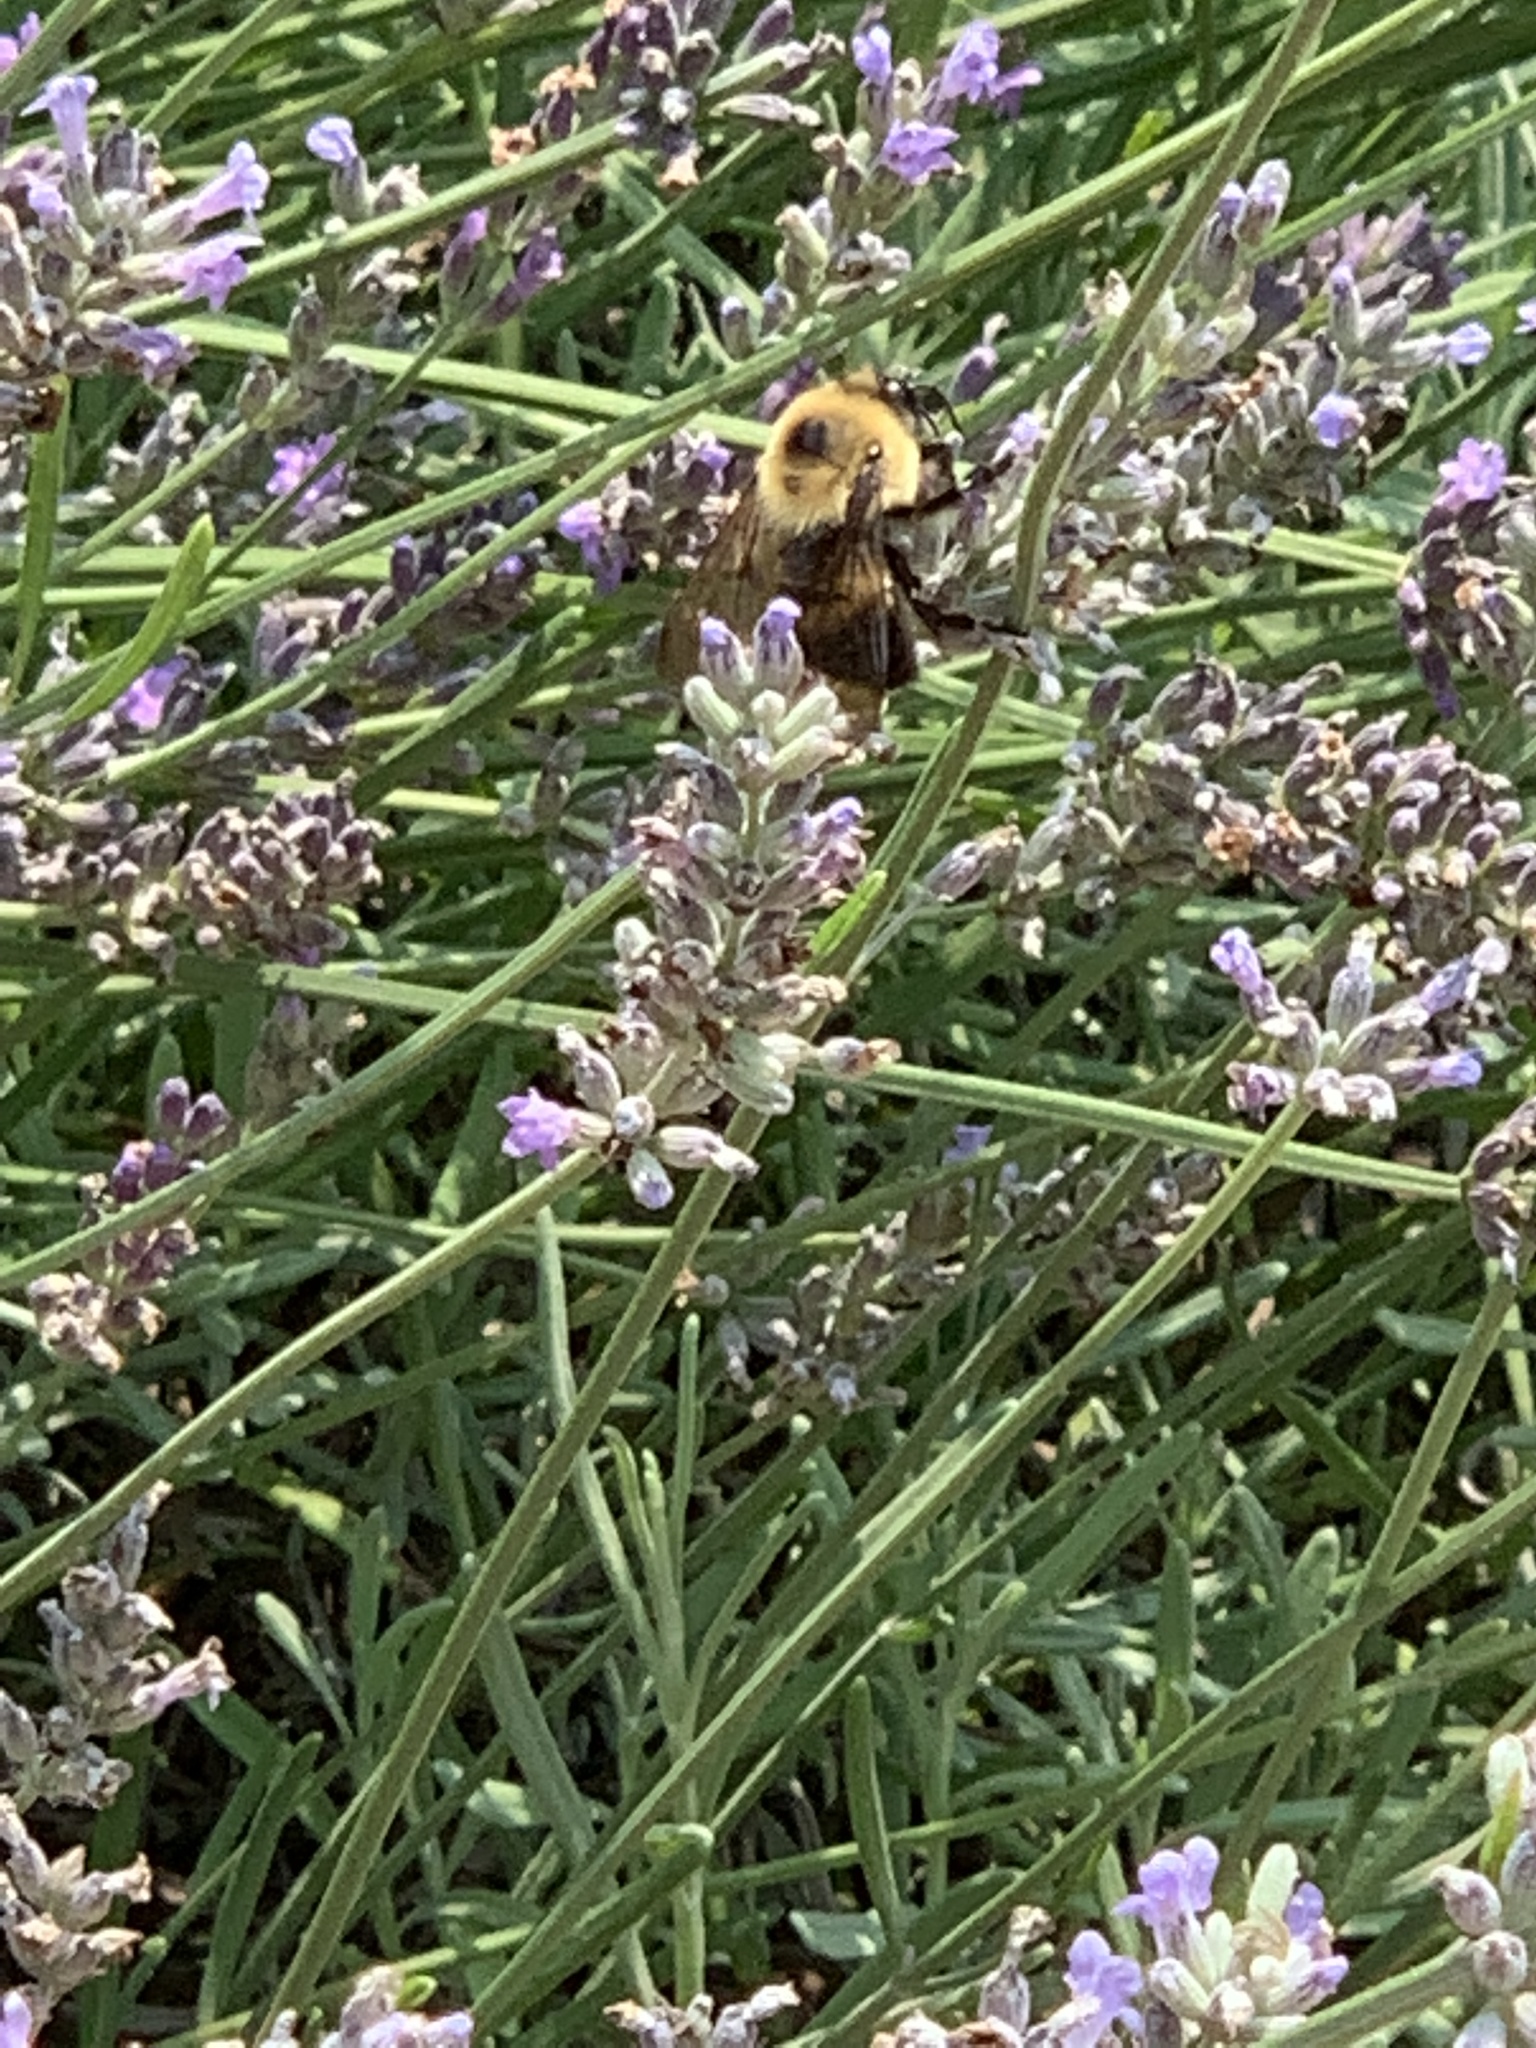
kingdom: Animalia
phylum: Arthropoda
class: Insecta
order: Hymenoptera
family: Apidae
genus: Bombus
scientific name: Bombus griseocollis
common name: Brown-belted bumble bee
